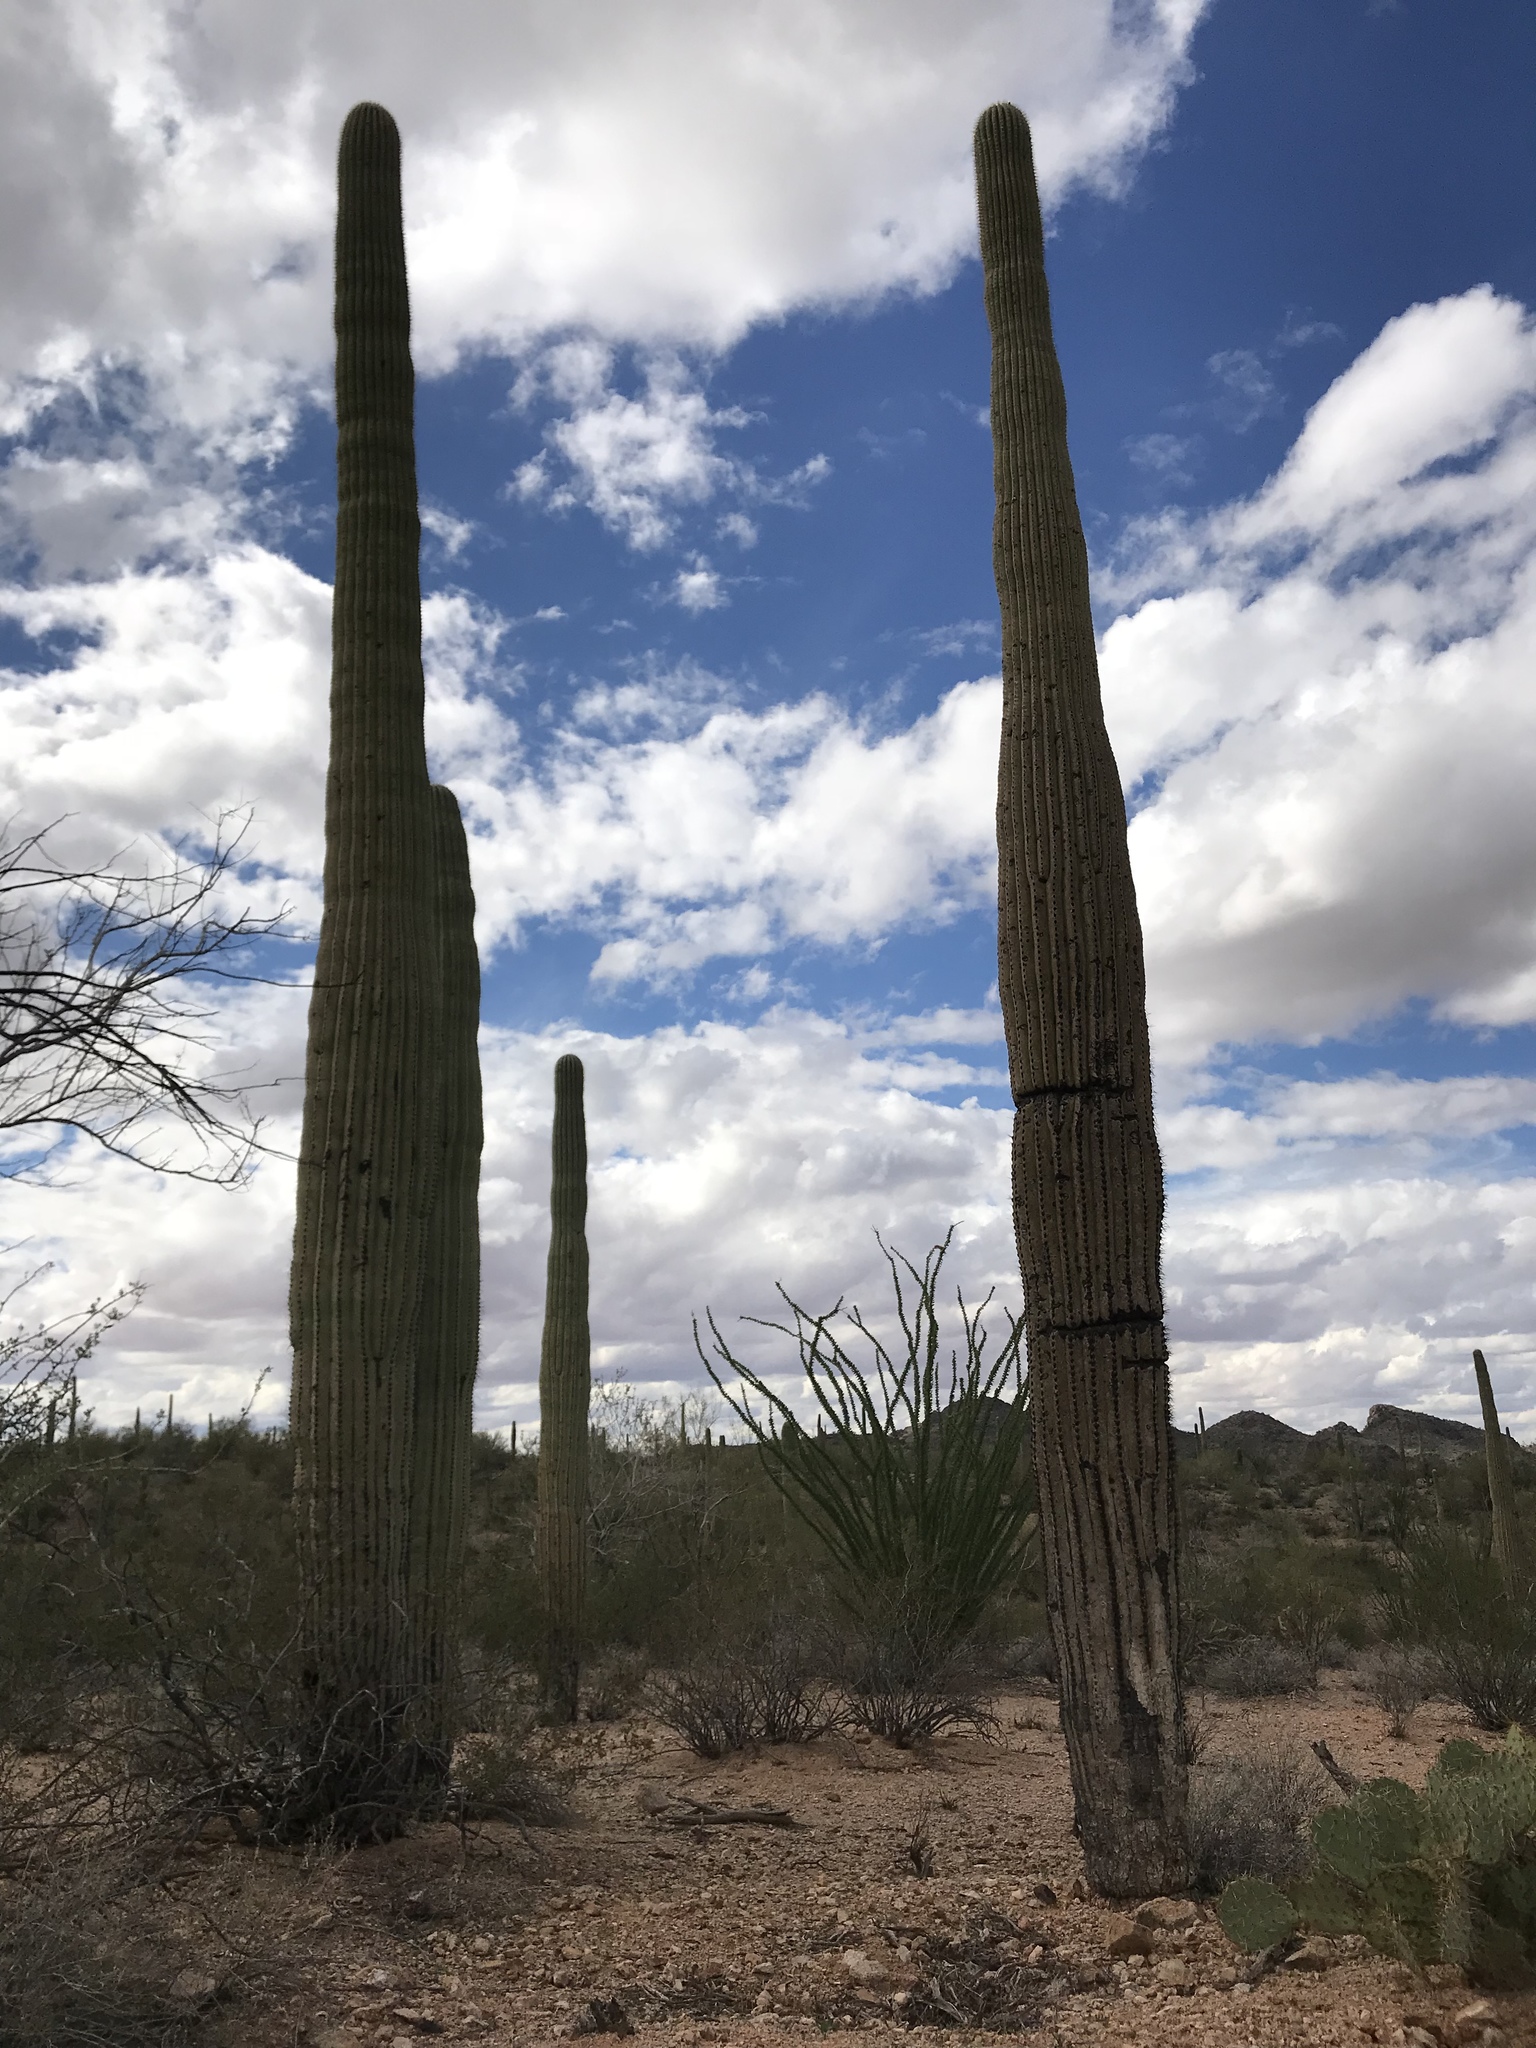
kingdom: Plantae
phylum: Tracheophyta
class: Magnoliopsida
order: Caryophyllales
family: Cactaceae
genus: Carnegiea
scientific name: Carnegiea gigantea
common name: Saguaro
